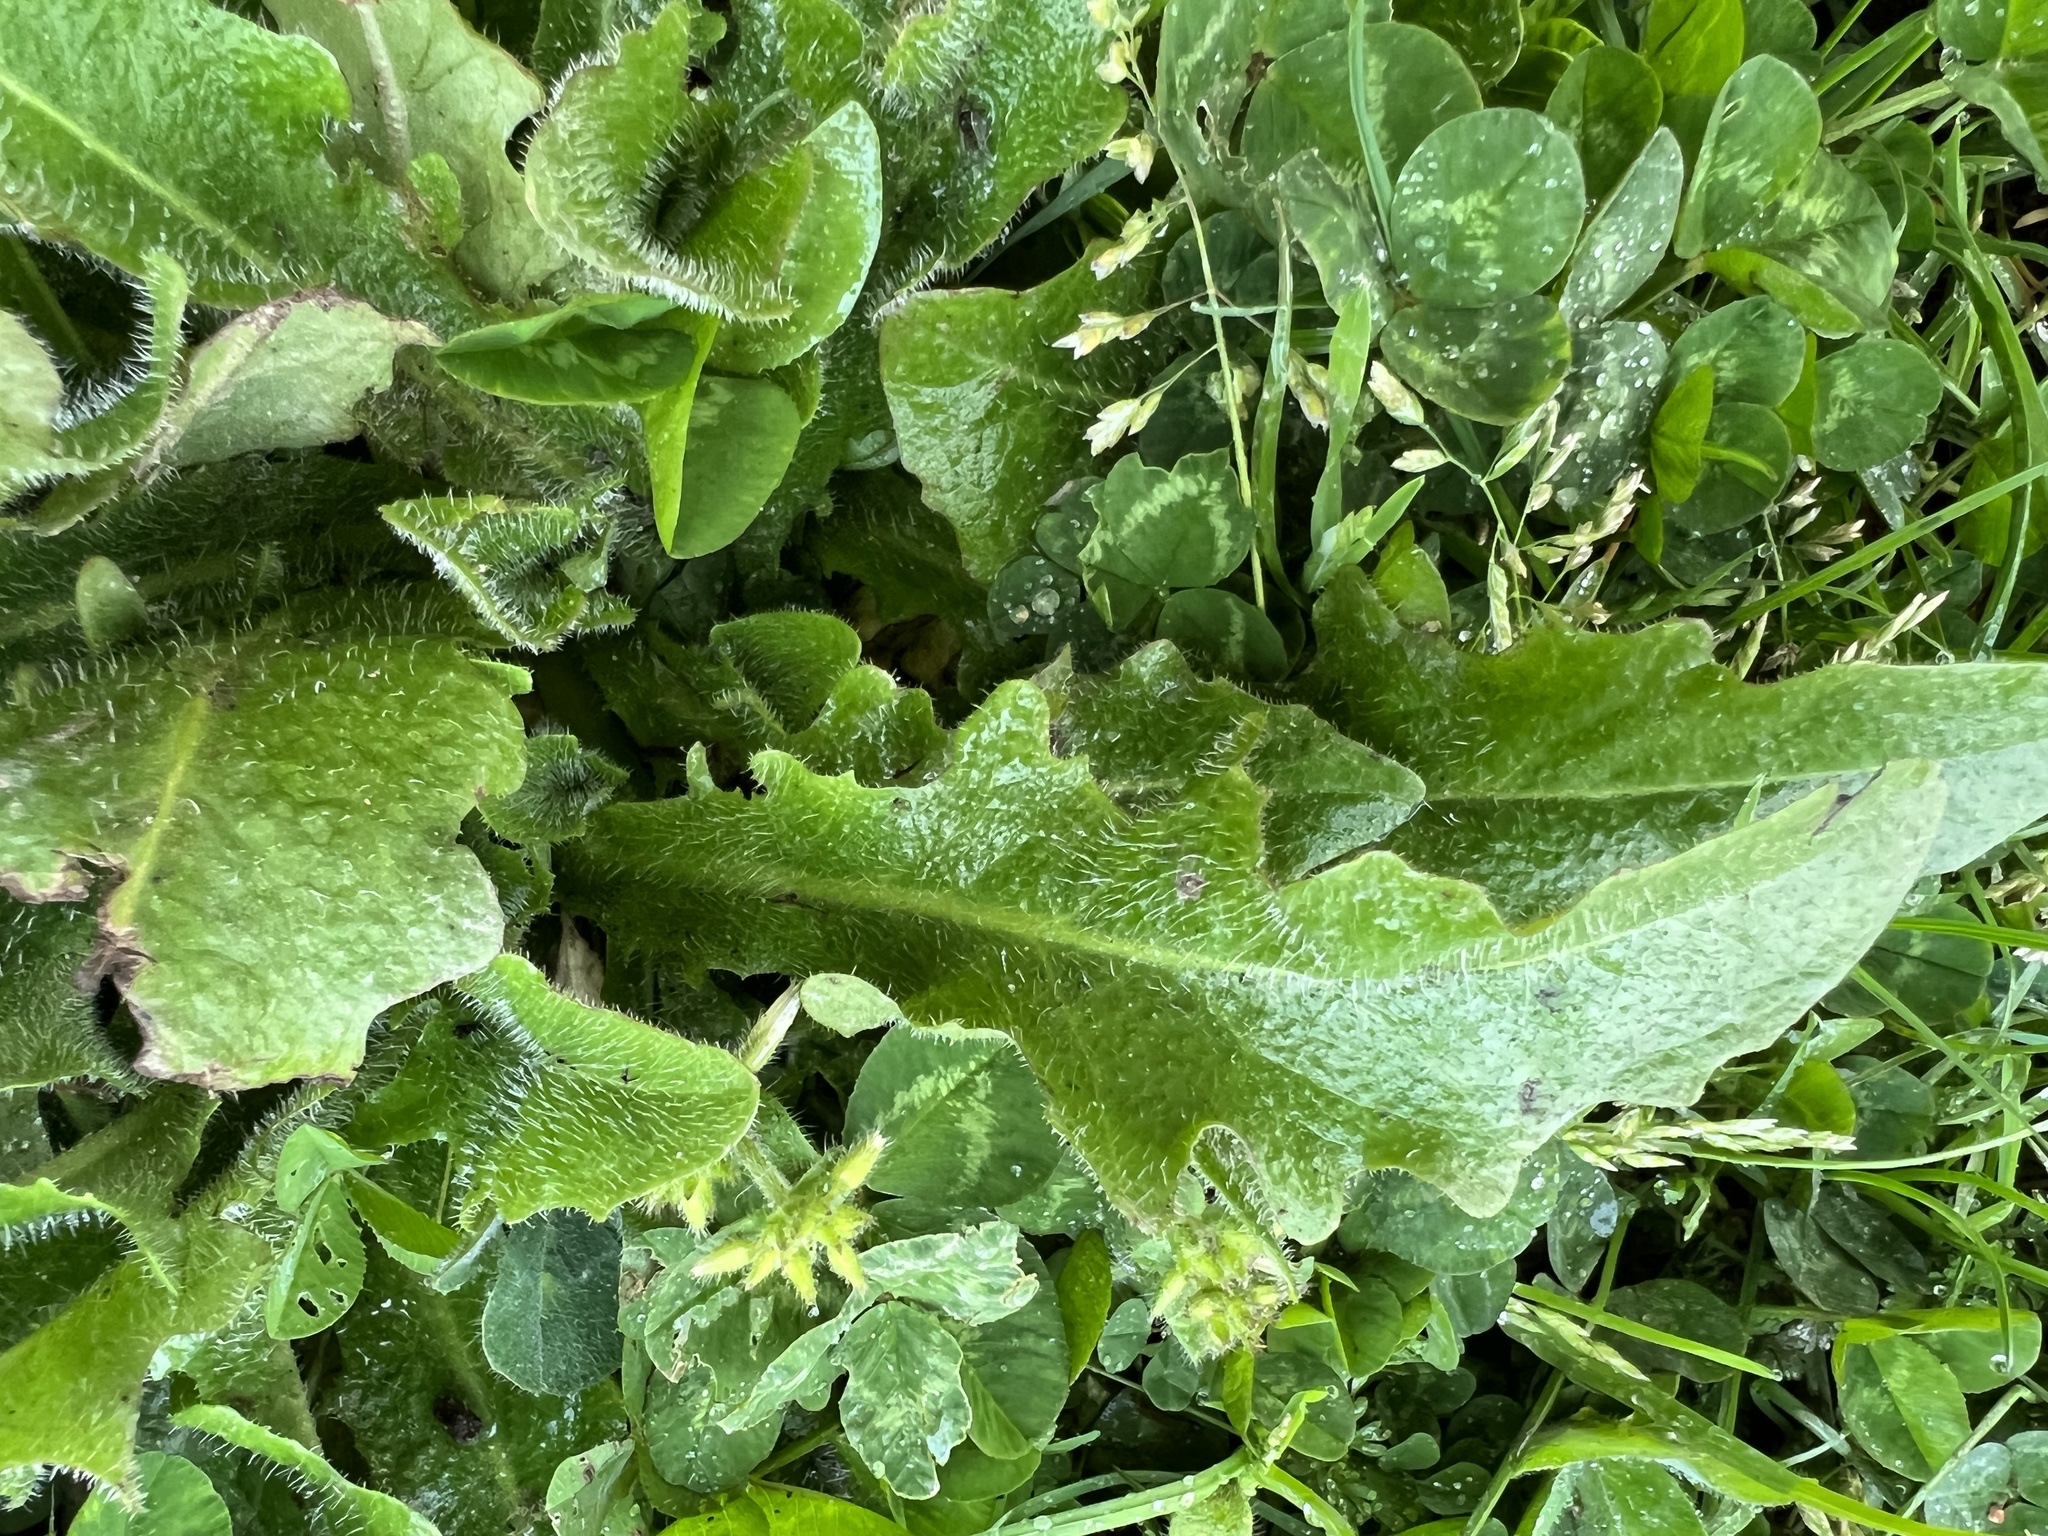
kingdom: Plantae
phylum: Tracheophyta
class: Magnoliopsida
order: Asterales
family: Asteraceae
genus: Hypochaeris
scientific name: Hypochaeris radicata
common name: Flatweed
